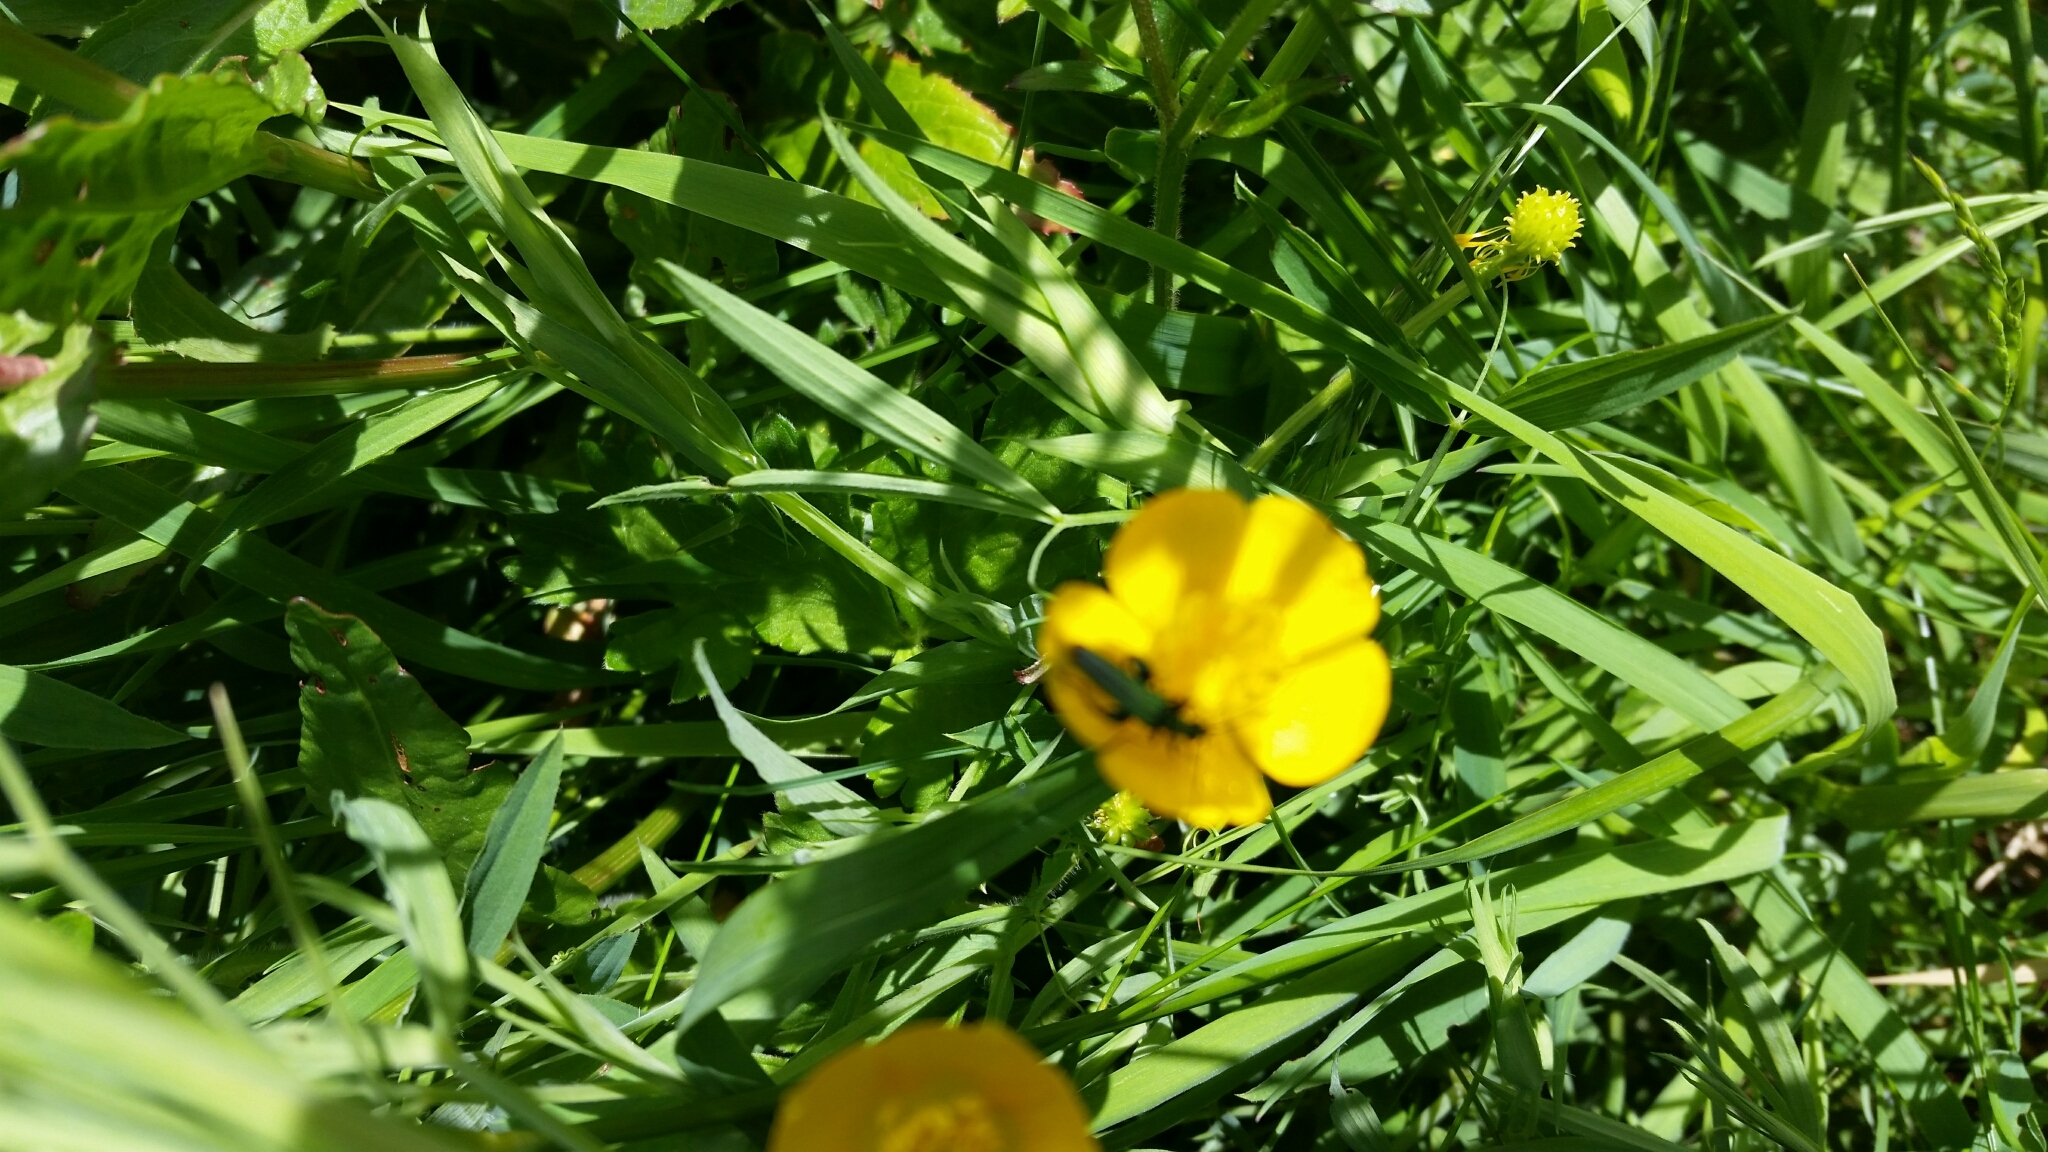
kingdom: Animalia
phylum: Arthropoda
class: Insecta
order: Coleoptera
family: Oedemeridae
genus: Oedemera
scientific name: Oedemera nobilis
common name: Swollen-thighed beetle
